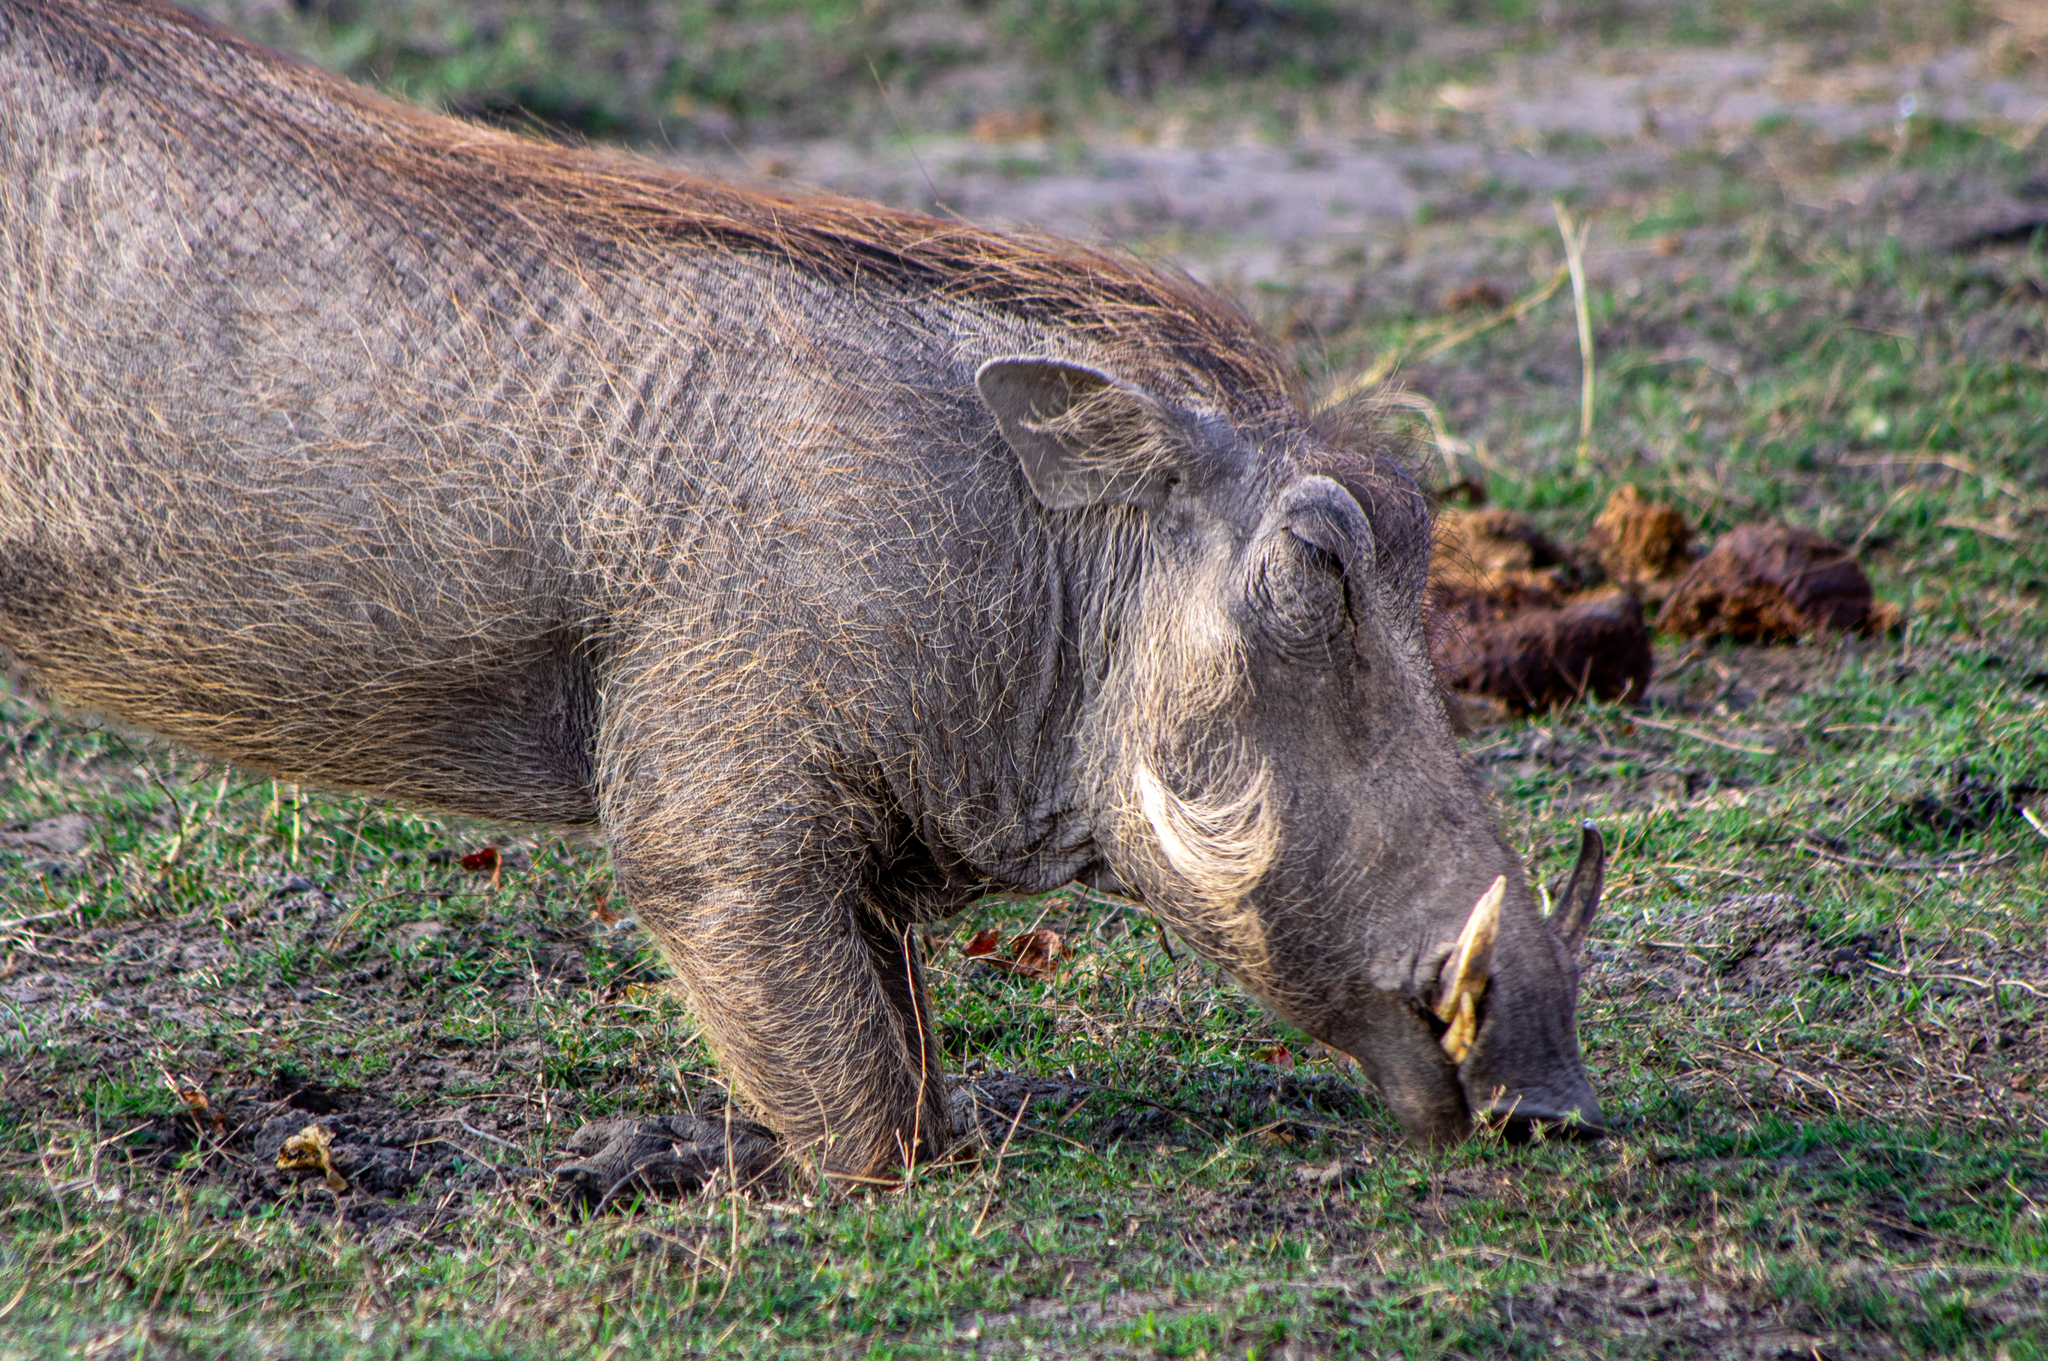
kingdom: Animalia
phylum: Chordata
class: Mammalia
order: Artiodactyla
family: Suidae
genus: Phacochoerus
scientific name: Phacochoerus africanus
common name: Common warthog
